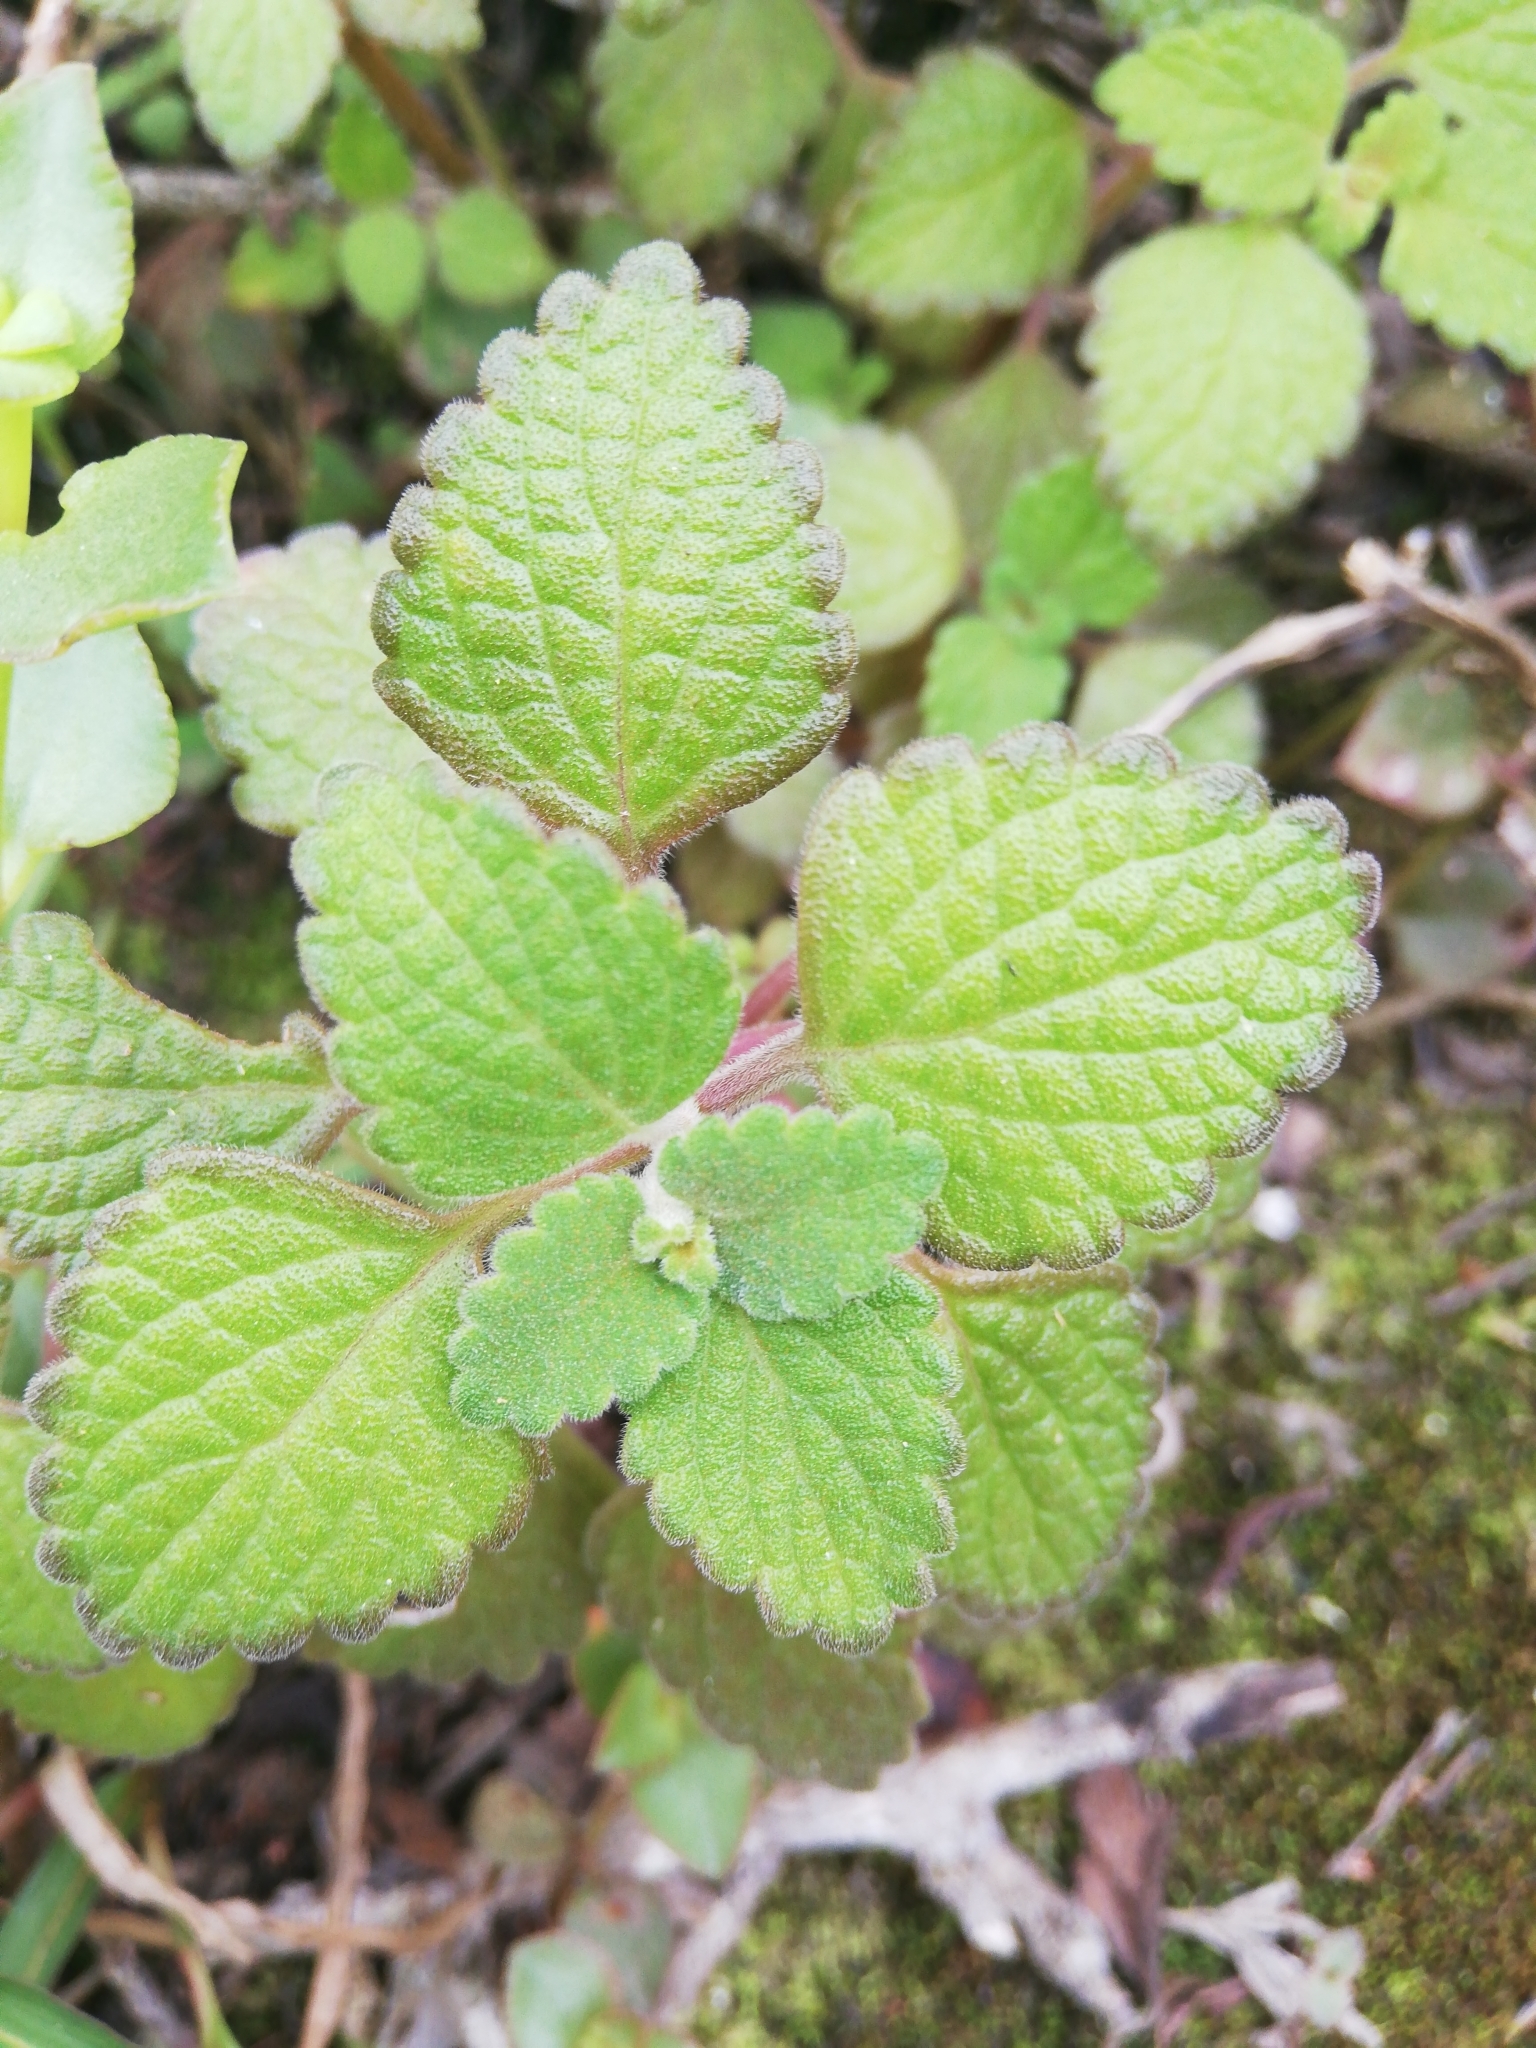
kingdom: Plantae
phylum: Tracheophyta
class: Magnoliopsida
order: Lamiales
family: Lamiaceae
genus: Coleus
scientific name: Coleus madagascariensis
